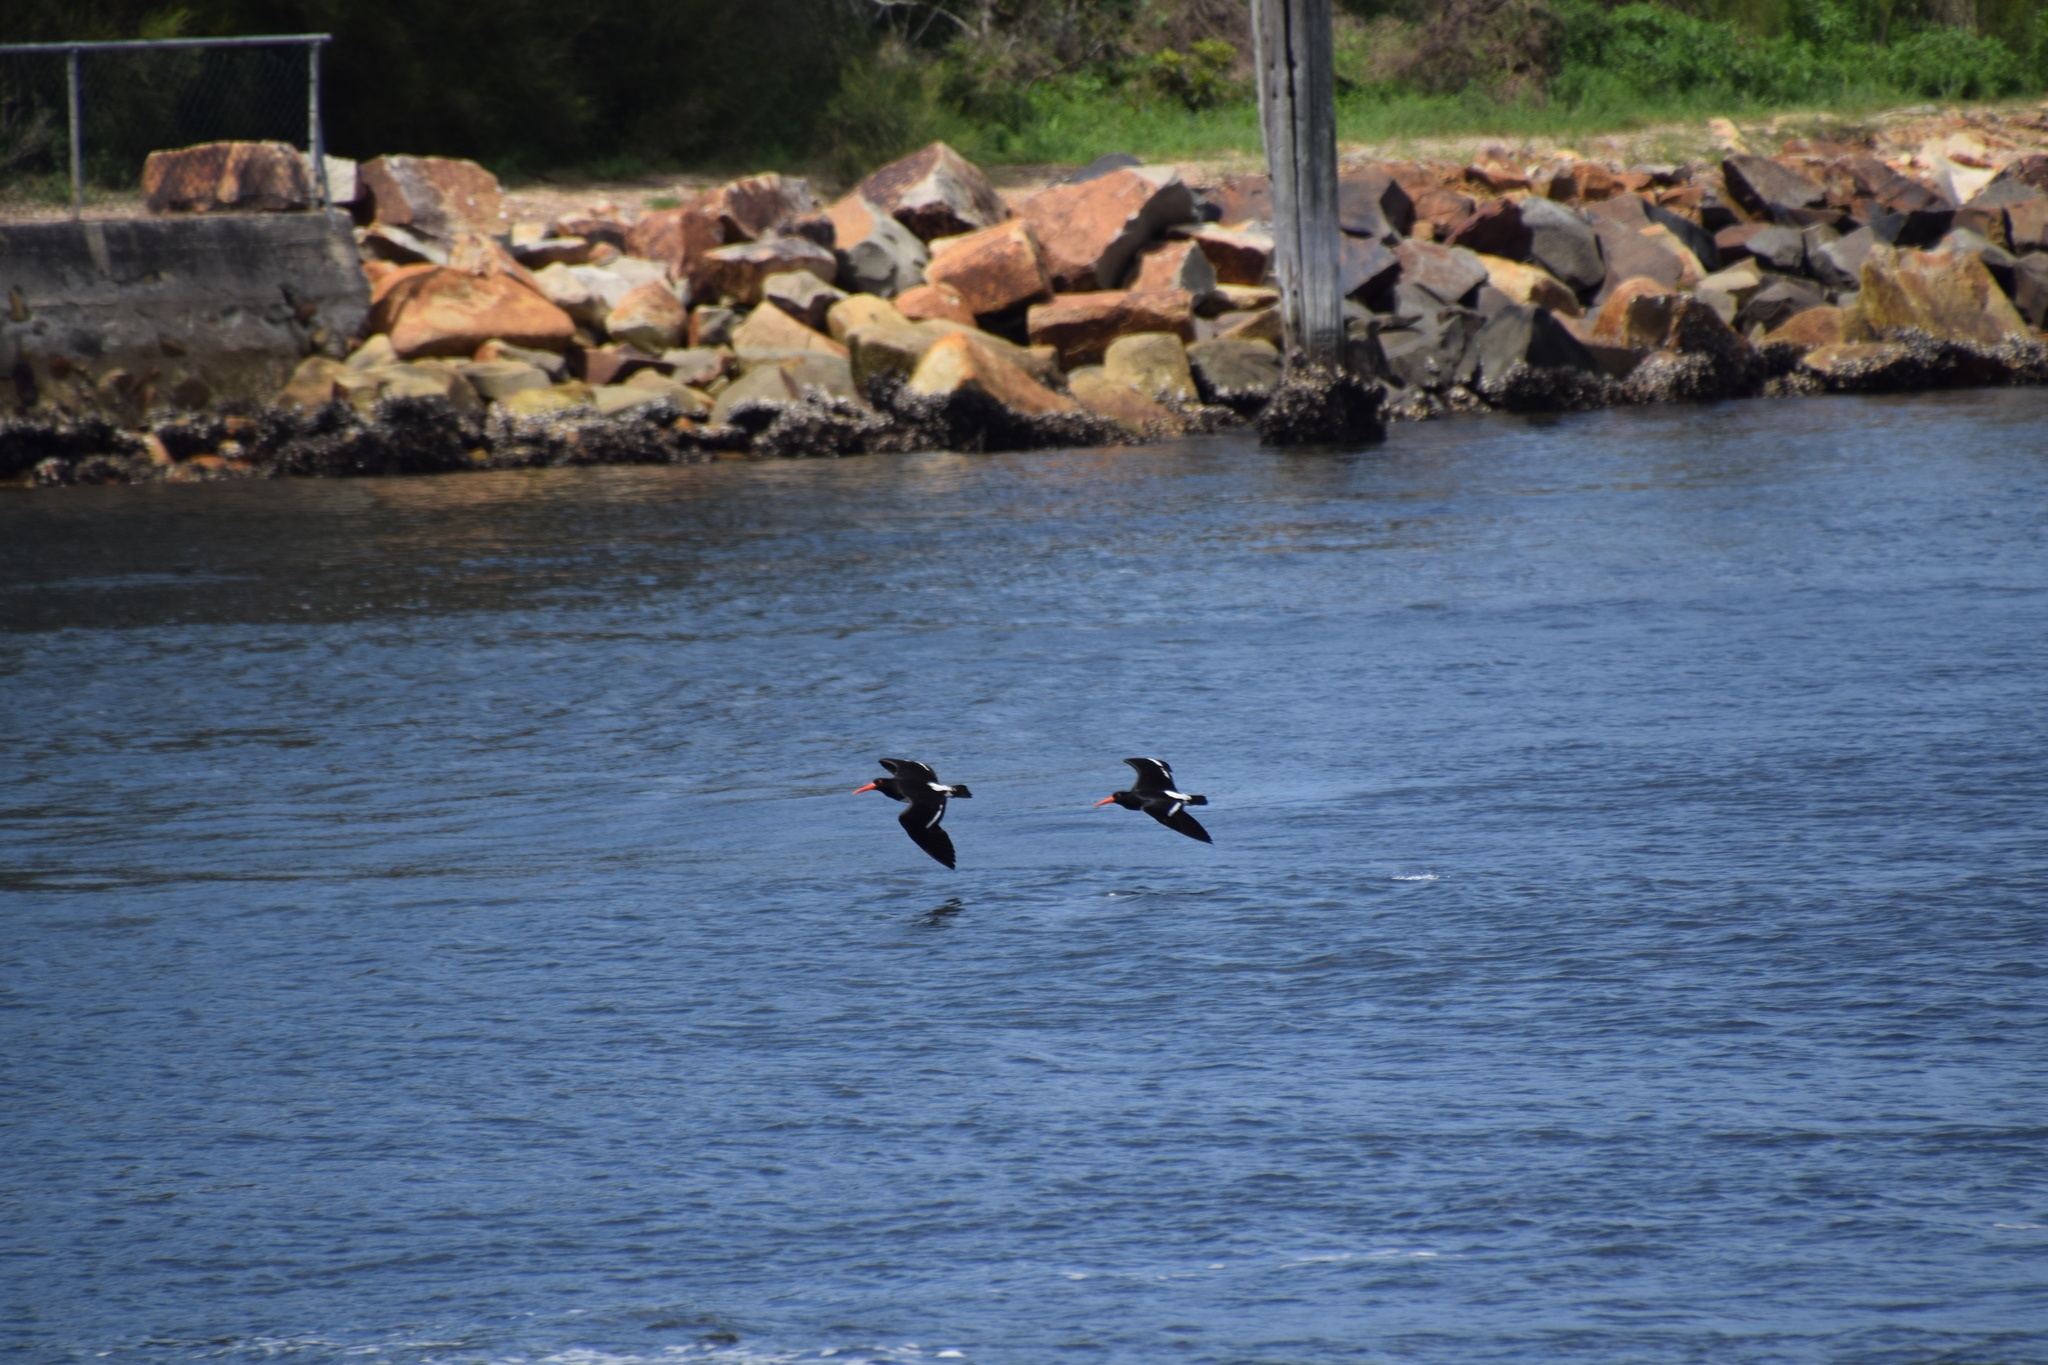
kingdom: Animalia
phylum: Chordata
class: Aves
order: Charadriiformes
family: Haematopodidae
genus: Haematopus
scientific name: Haematopus longirostris
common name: Pied oystercatcher
